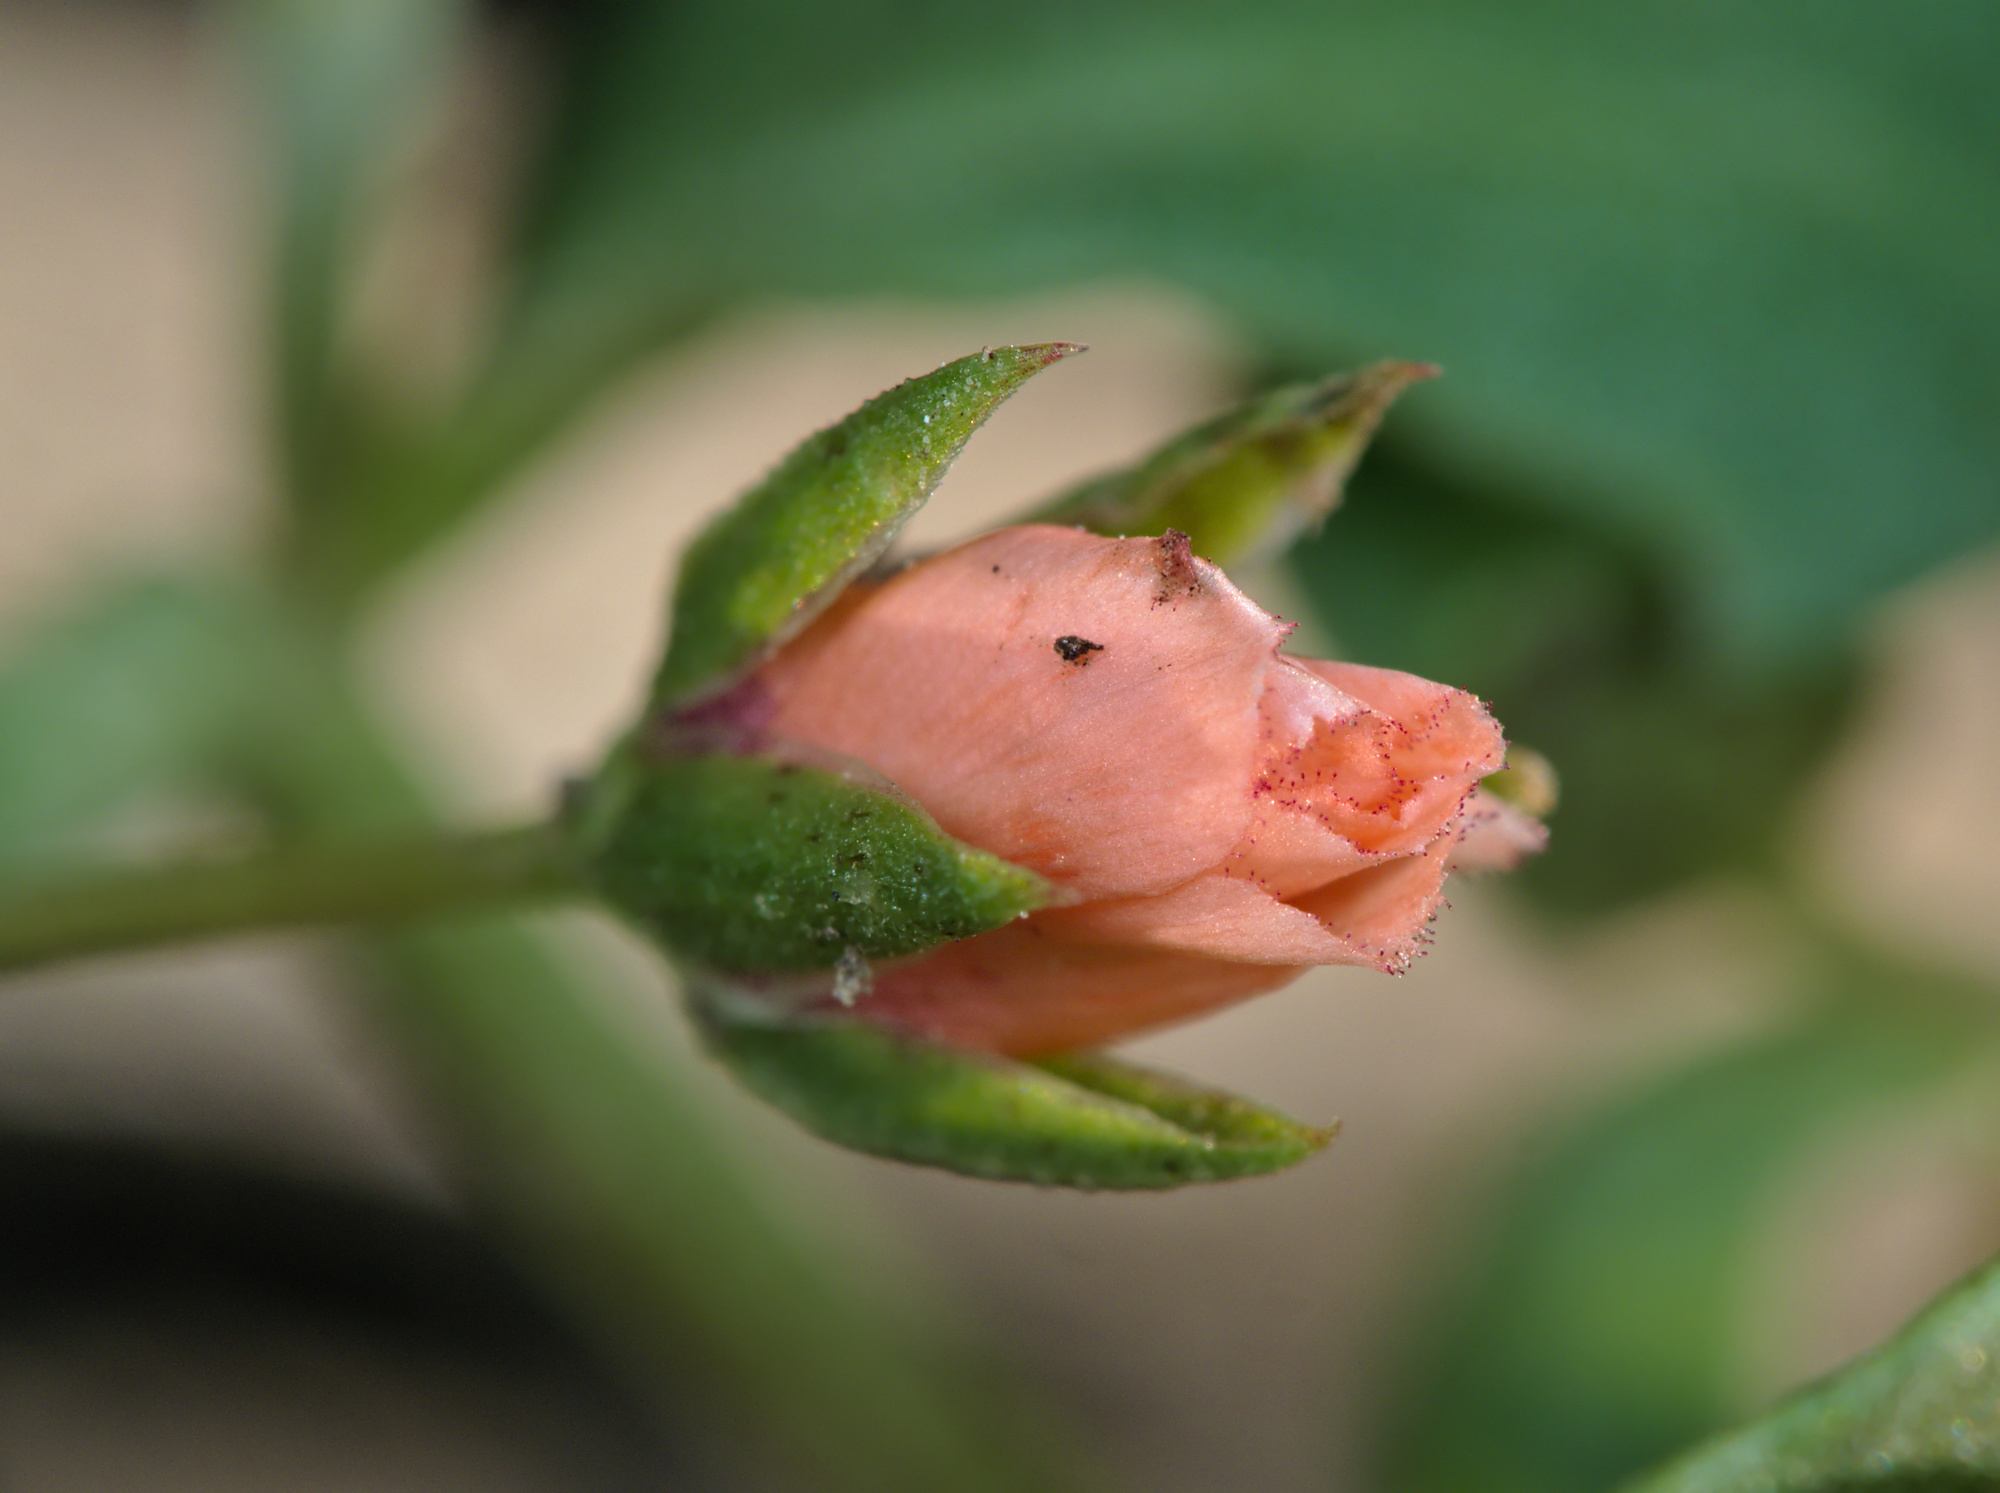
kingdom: Plantae
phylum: Tracheophyta
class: Magnoliopsida
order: Ericales
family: Primulaceae
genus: Lysimachia
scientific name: Lysimachia arvensis
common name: Scarlet pimpernel
